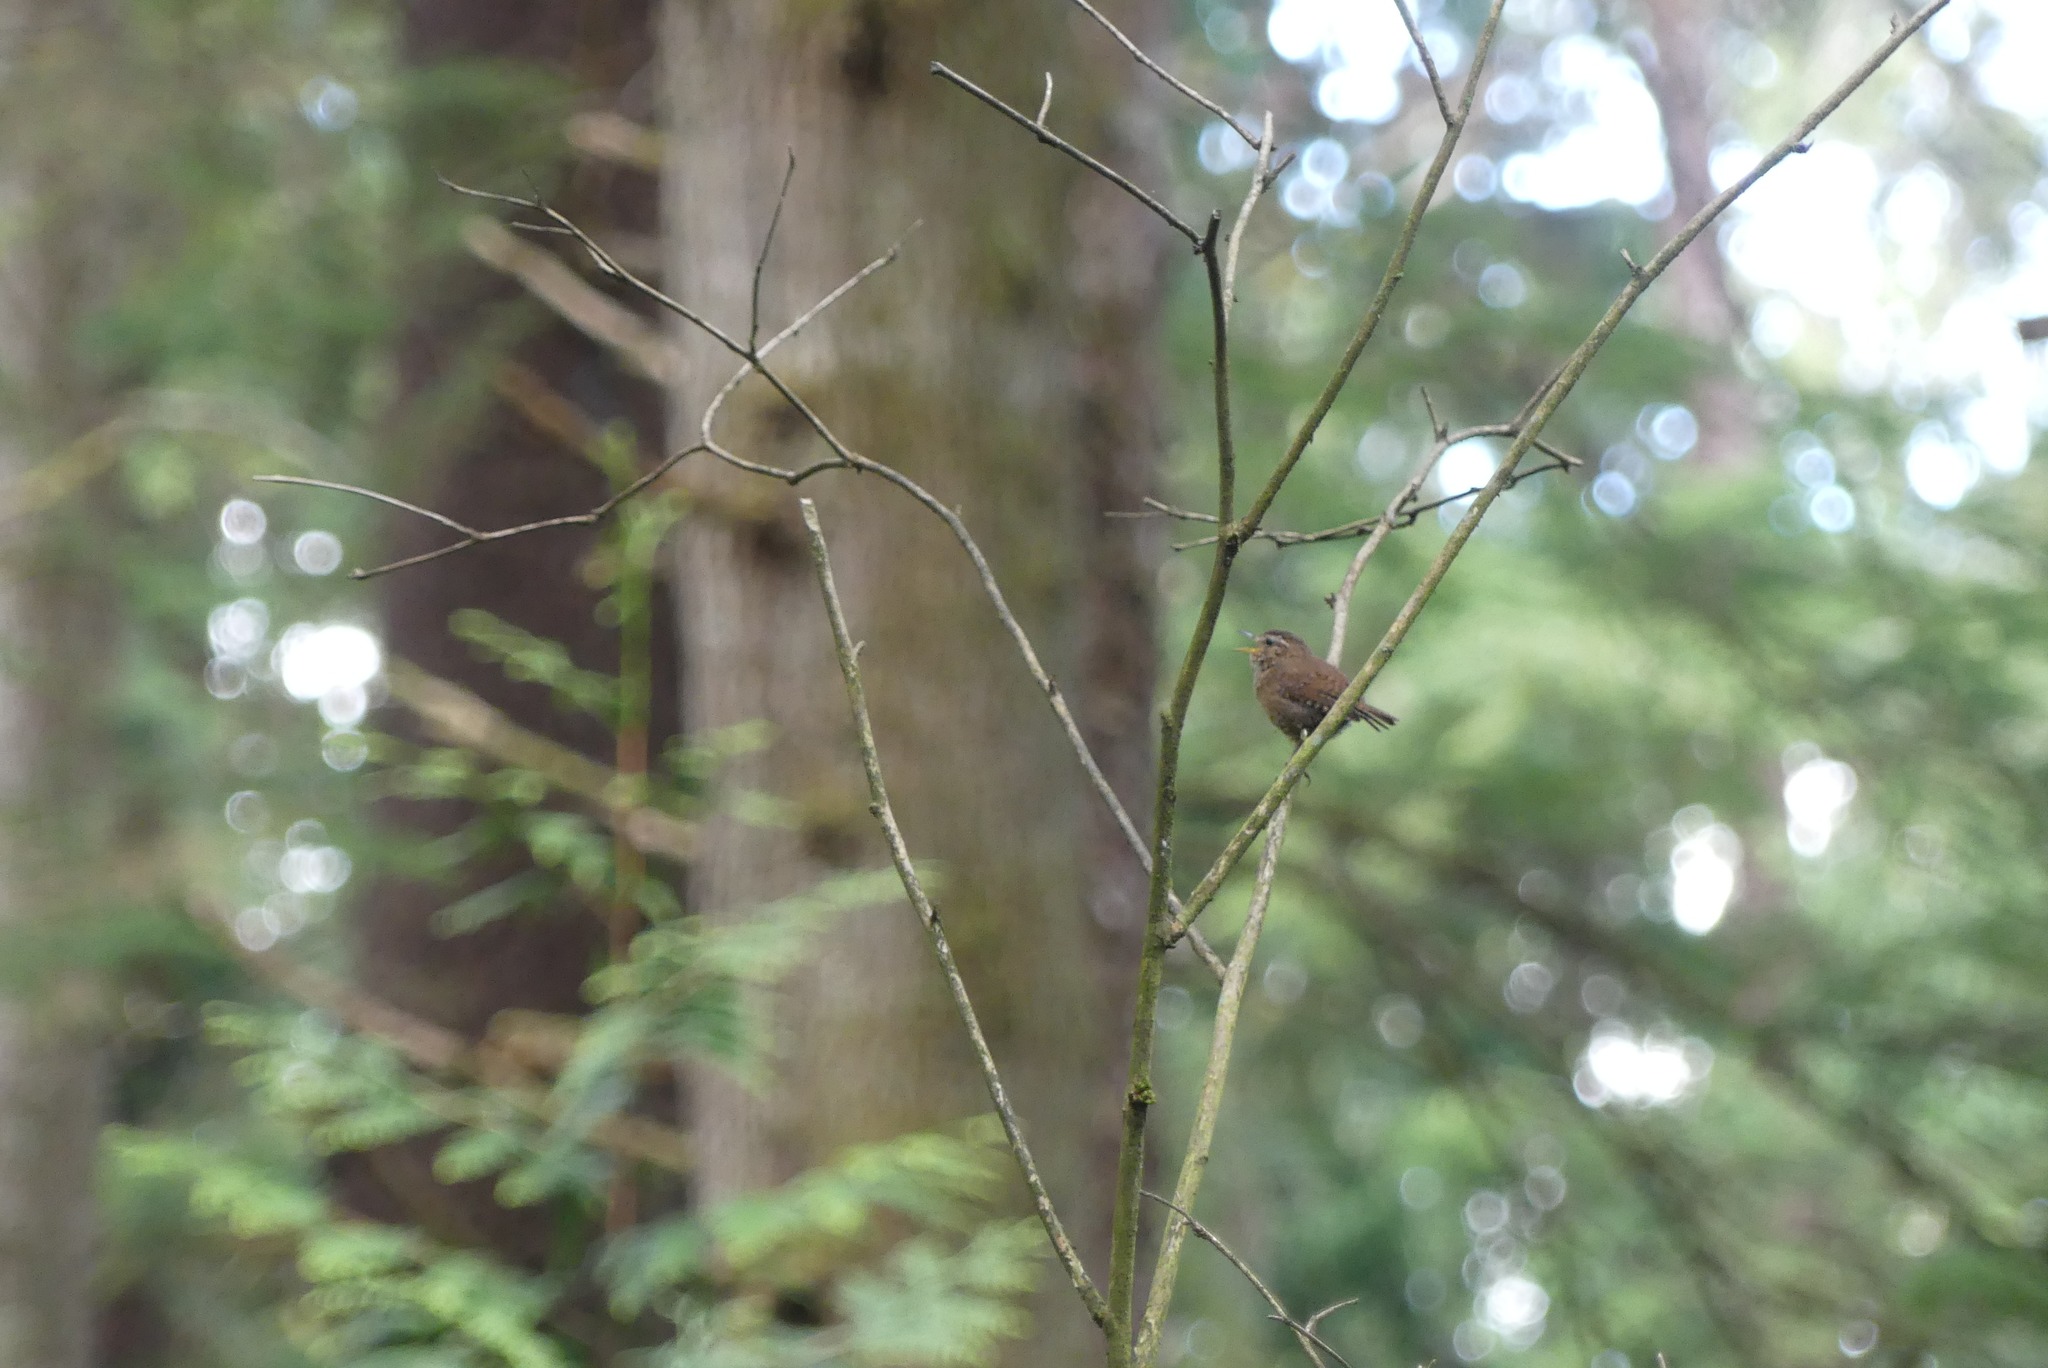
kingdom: Animalia
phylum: Chordata
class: Aves
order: Passeriformes
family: Troglodytidae
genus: Troglodytes
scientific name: Troglodytes pacificus
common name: Pacific wren
